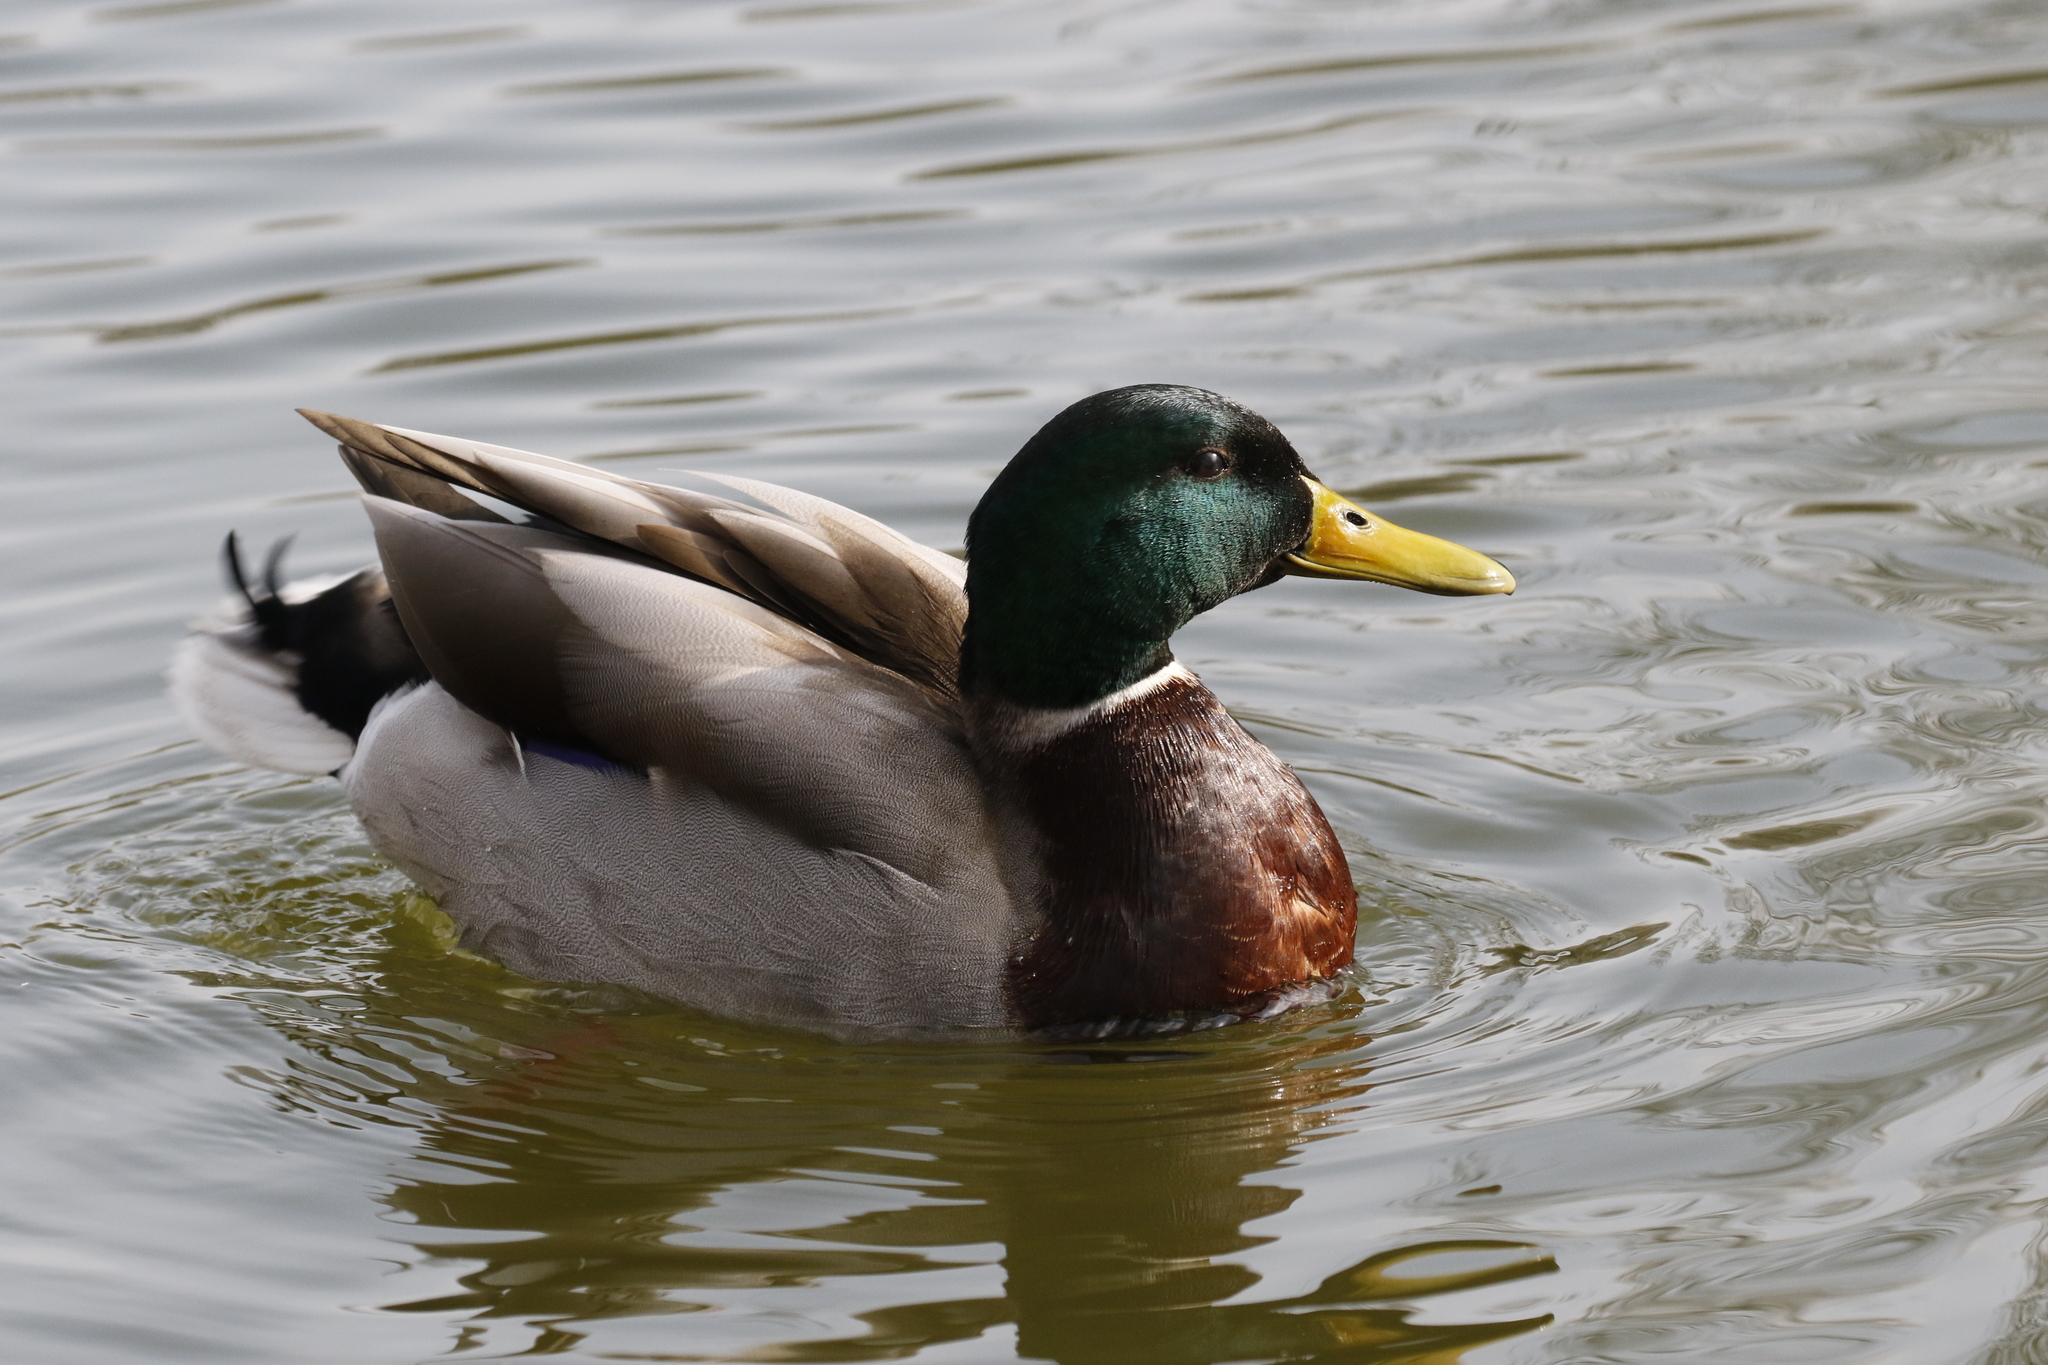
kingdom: Animalia
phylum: Chordata
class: Aves
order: Anseriformes
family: Anatidae
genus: Anas
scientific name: Anas platyrhynchos
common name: Mallard
